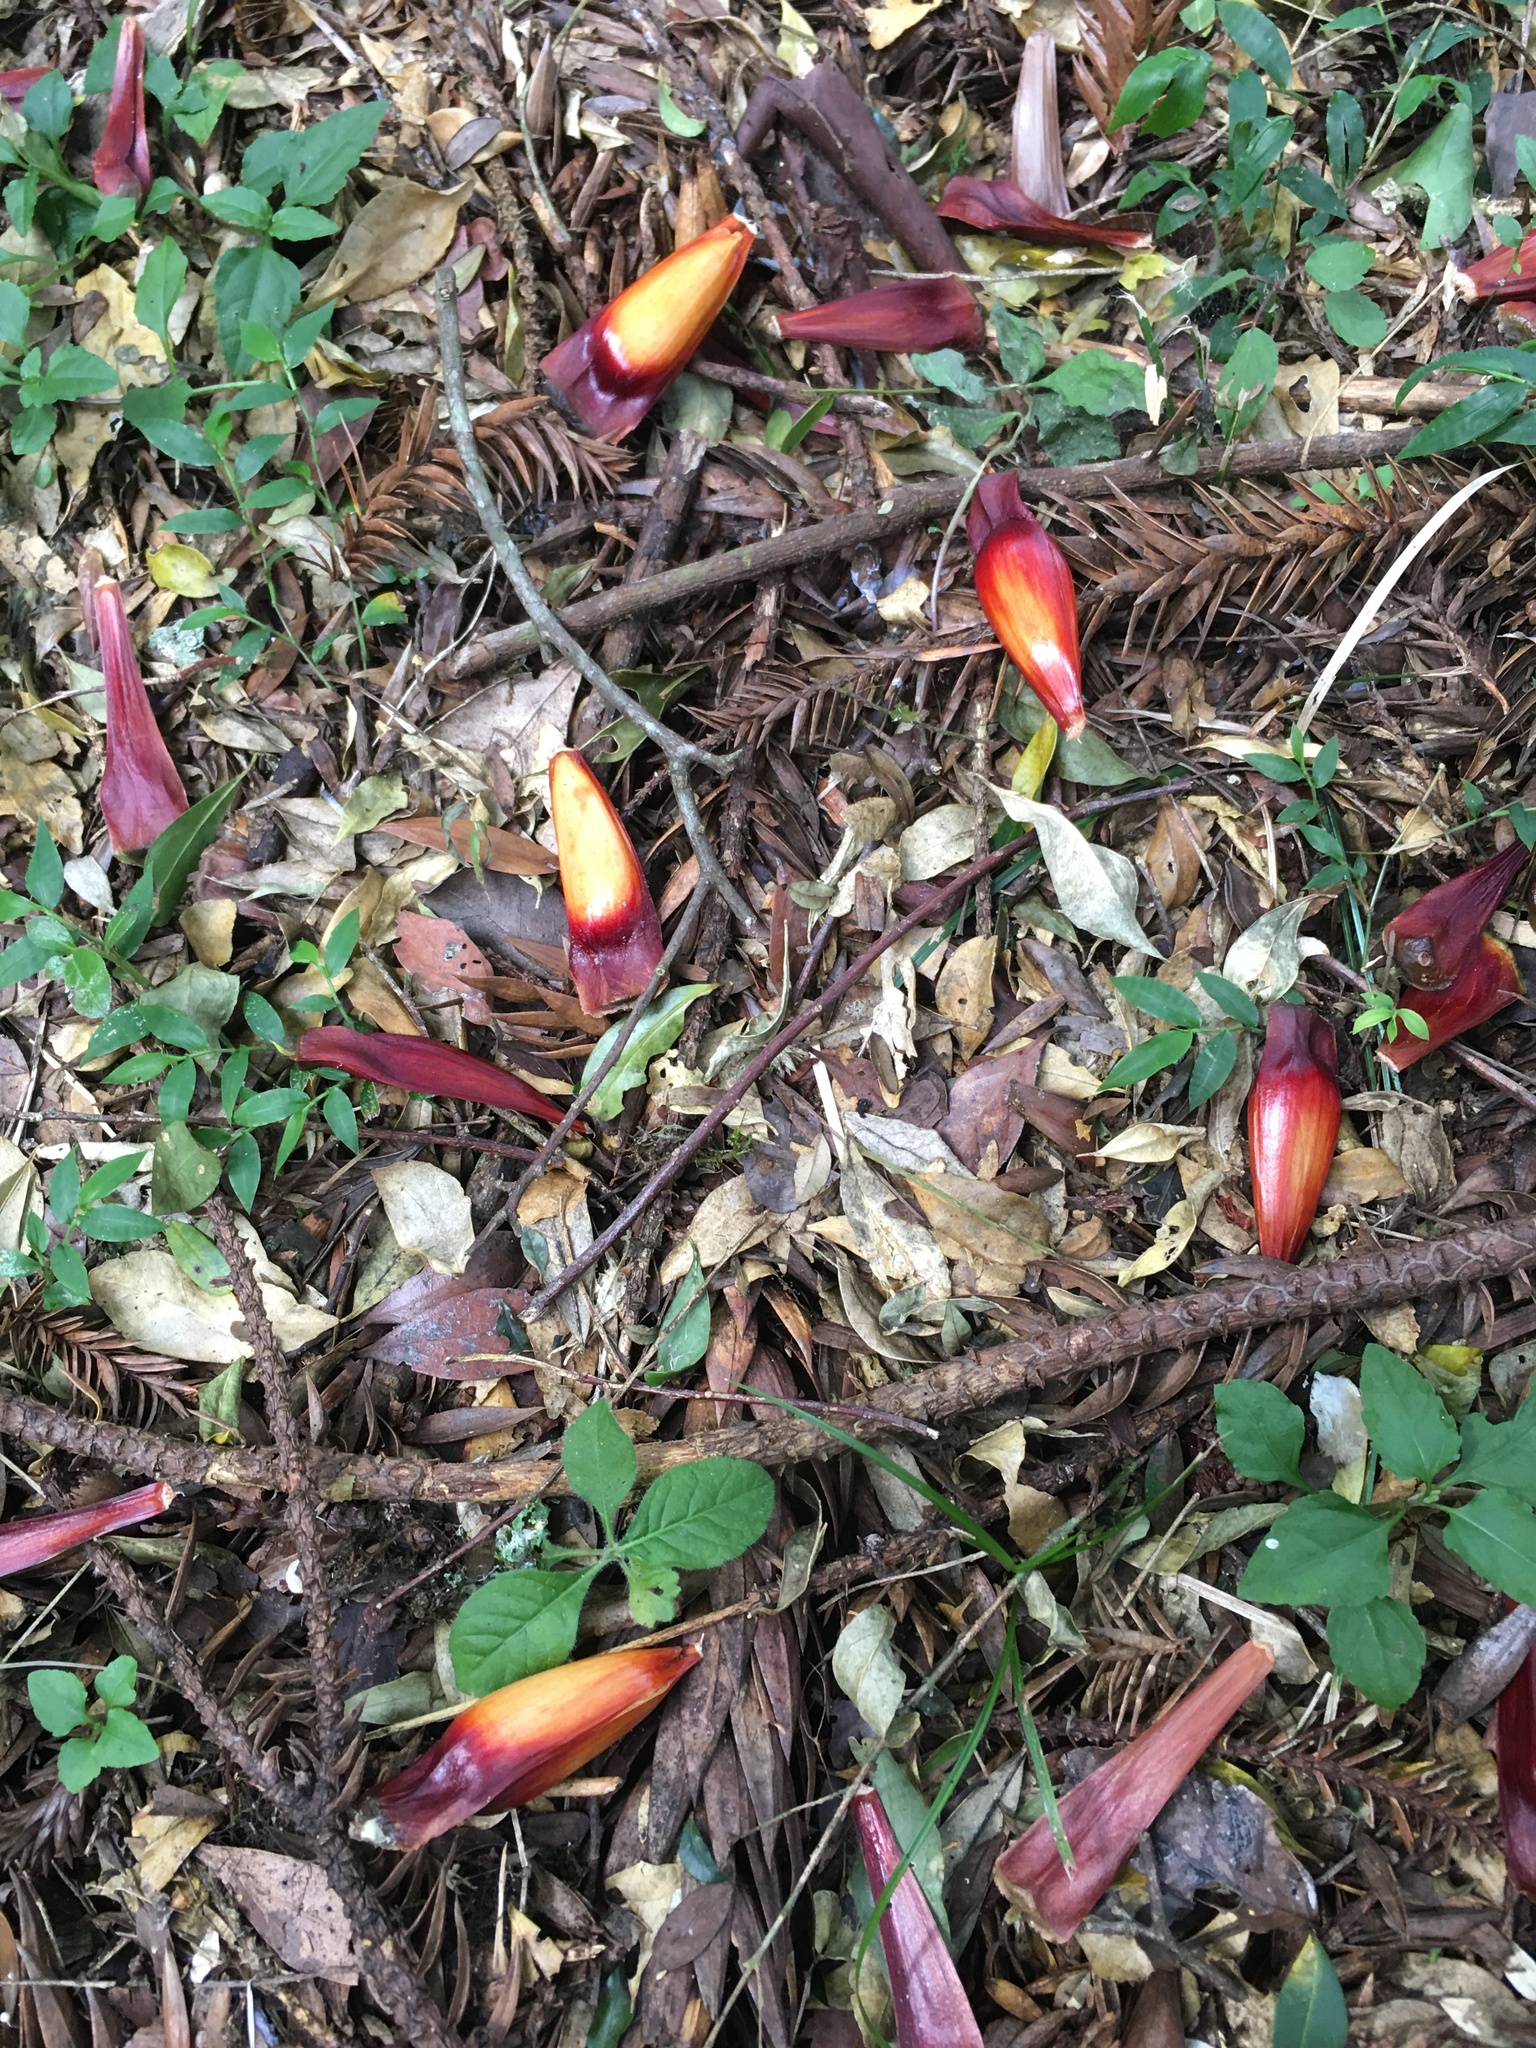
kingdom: Plantae
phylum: Tracheophyta
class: Pinopsida
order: Pinales
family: Araucariaceae
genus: Araucaria
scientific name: Araucaria angustifolia
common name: Candelabra tree
